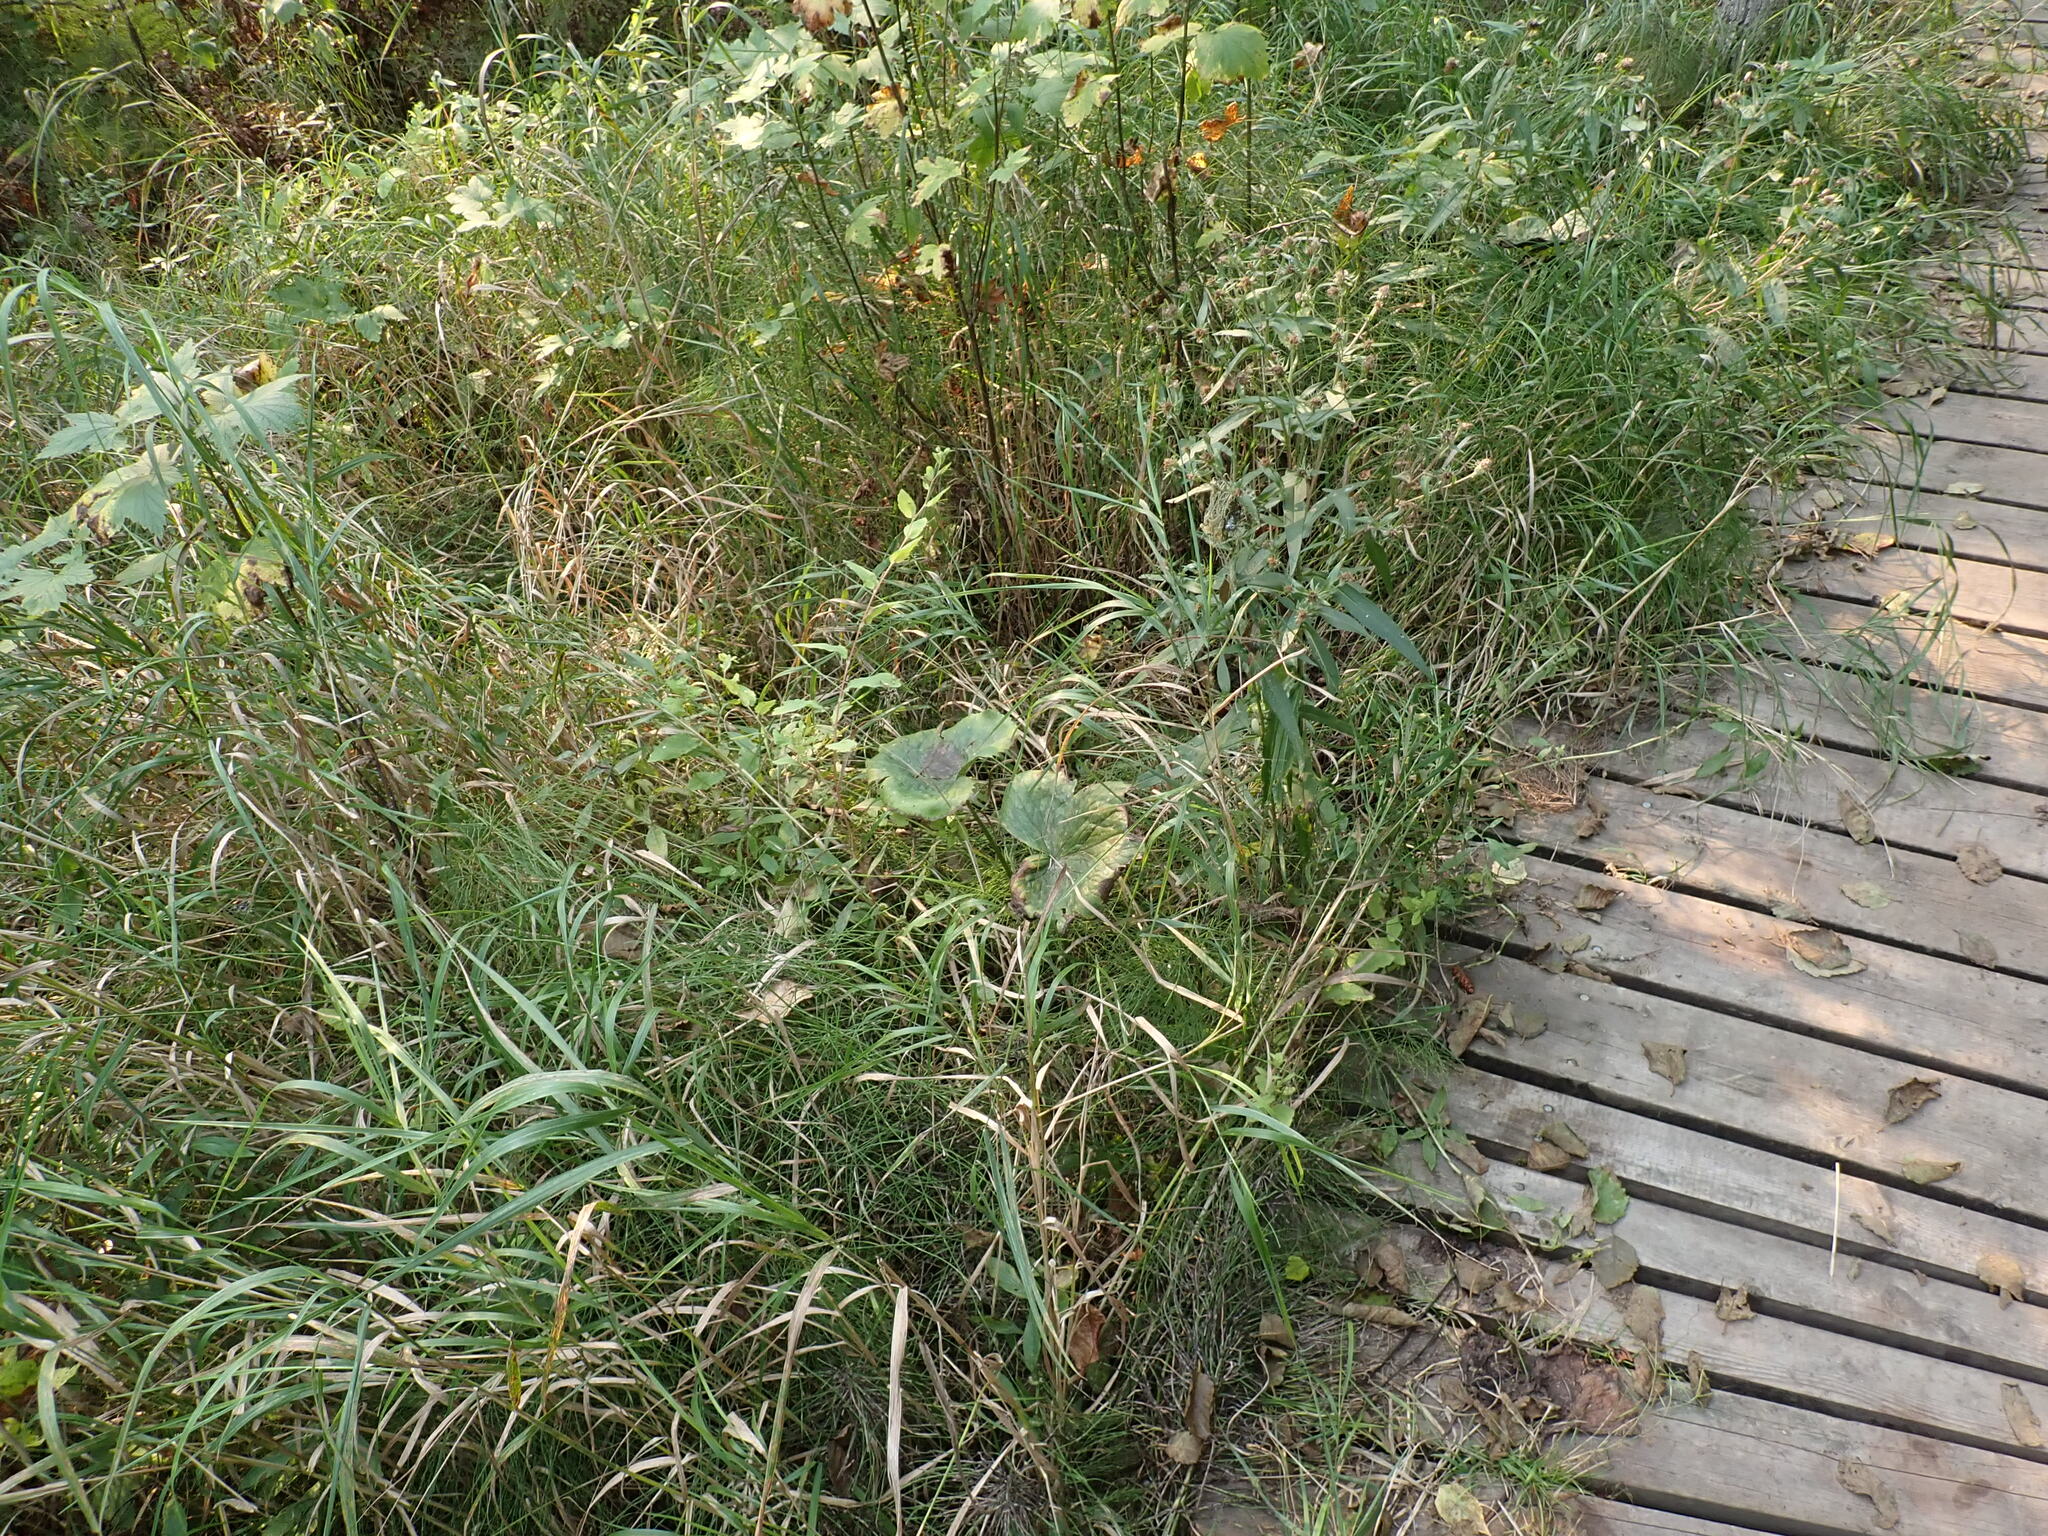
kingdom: Plantae
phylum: Tracheophyta
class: Magnoliopsida
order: Ranunculales
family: Ranunculaceae
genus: Caltha
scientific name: Caltha palustris
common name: Marsh marigold
